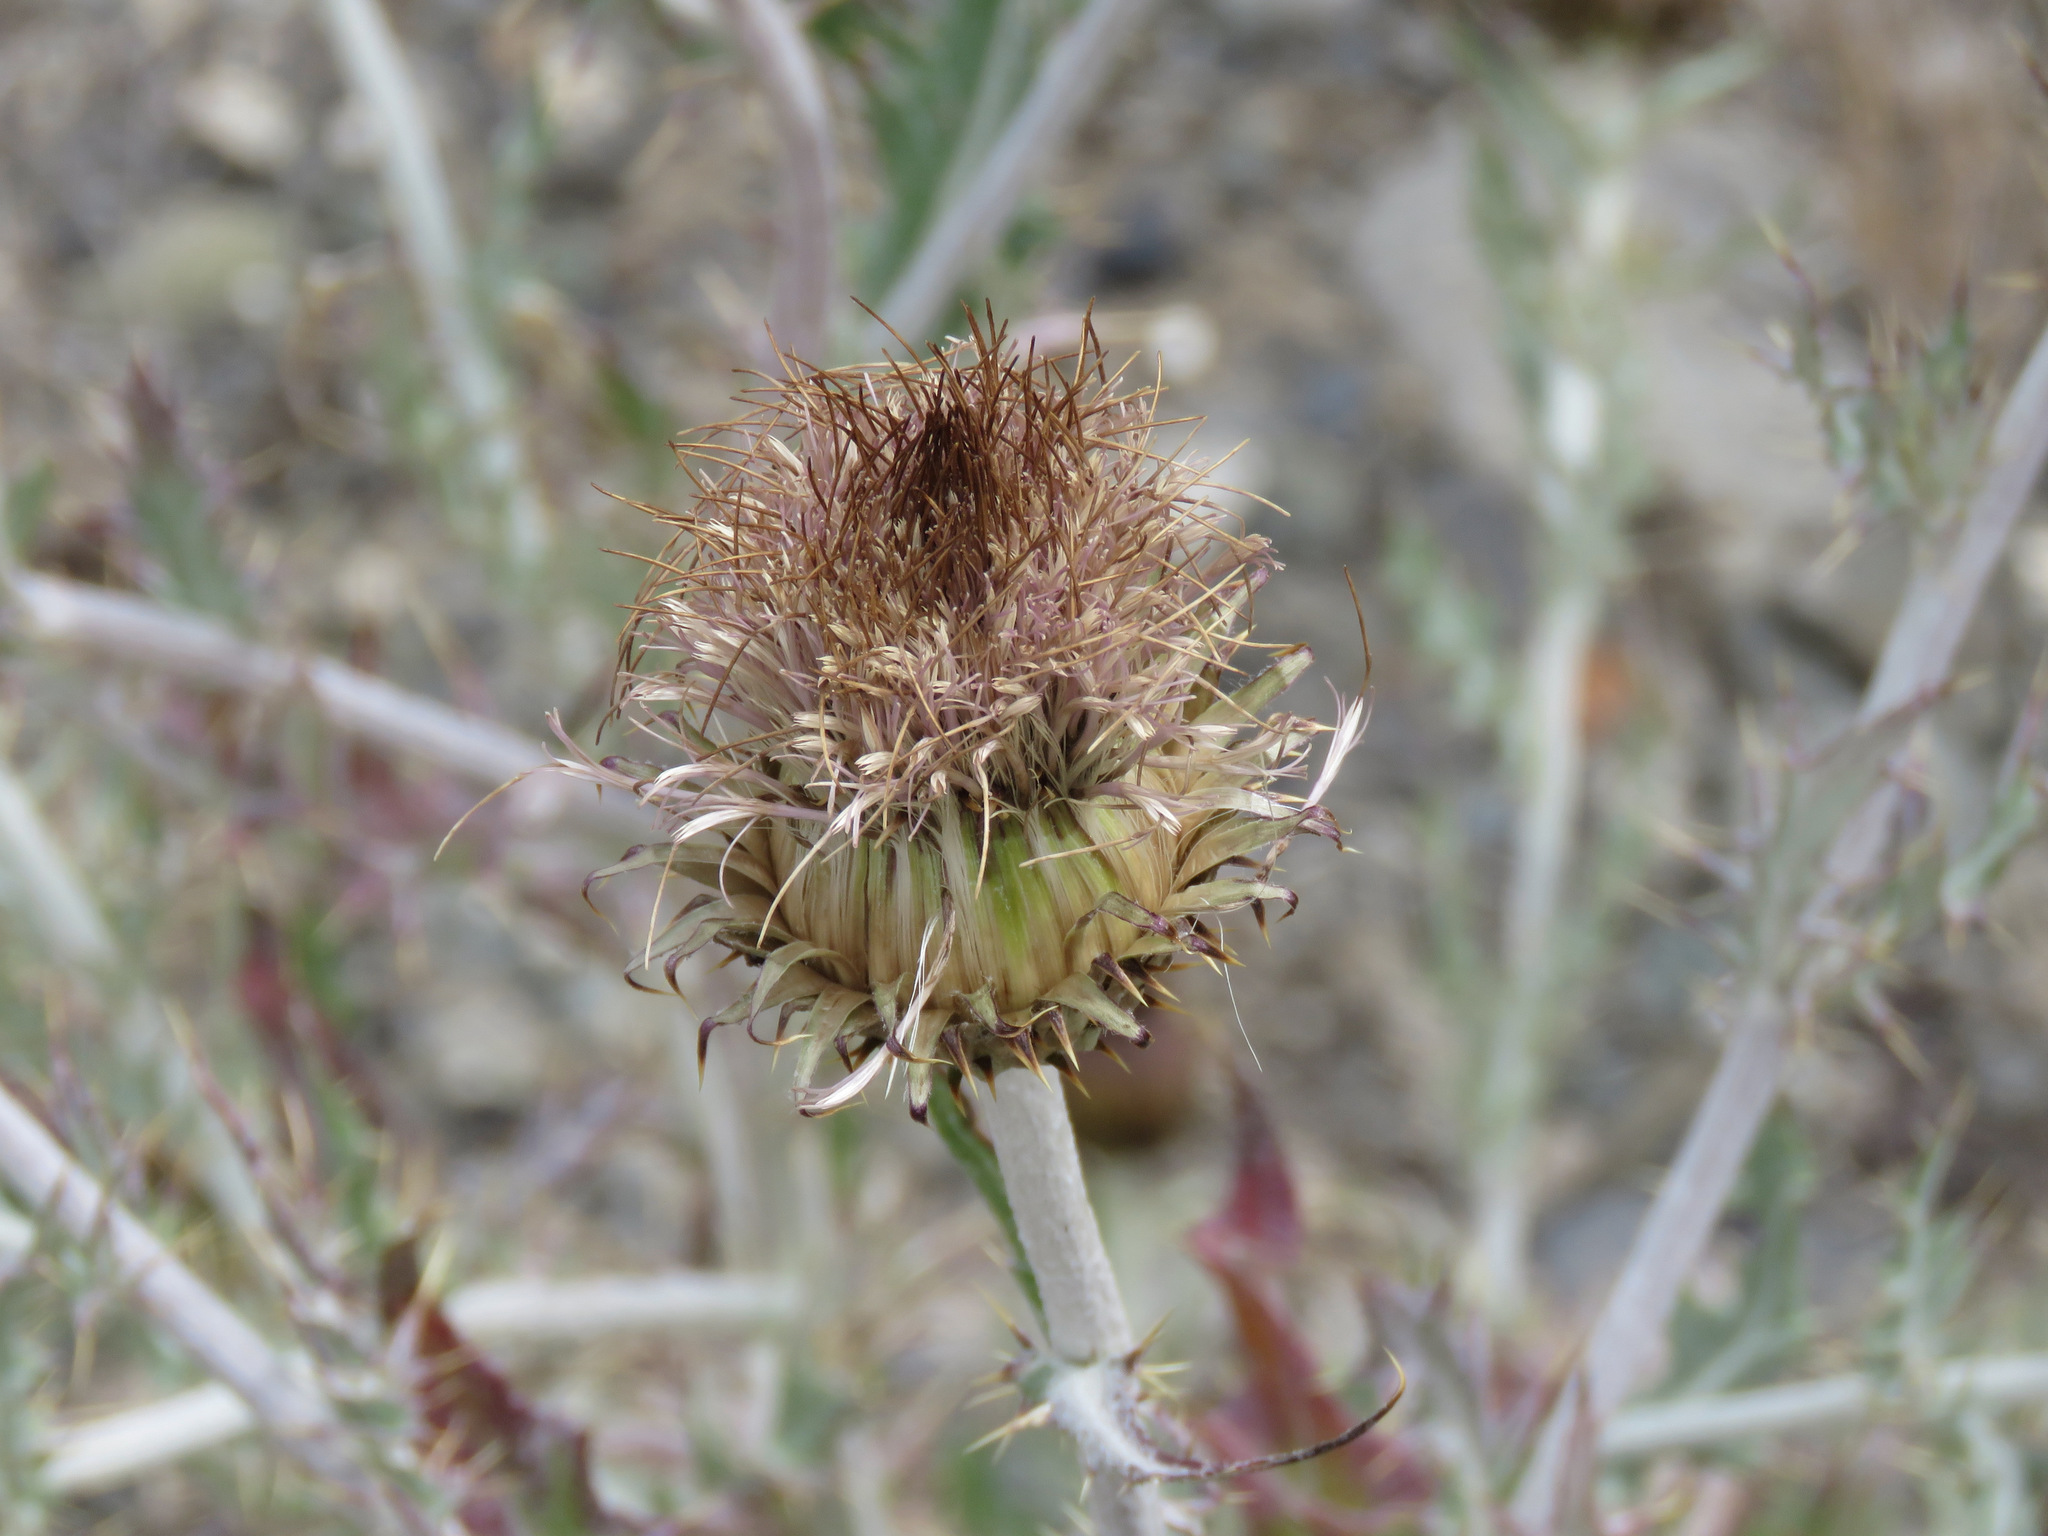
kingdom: Plantae
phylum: Tracheophyta
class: Magnoliopsida
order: Asterales
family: Asteraceae
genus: Cirsium
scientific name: Cirsium undulatum
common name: Pasture thistle
